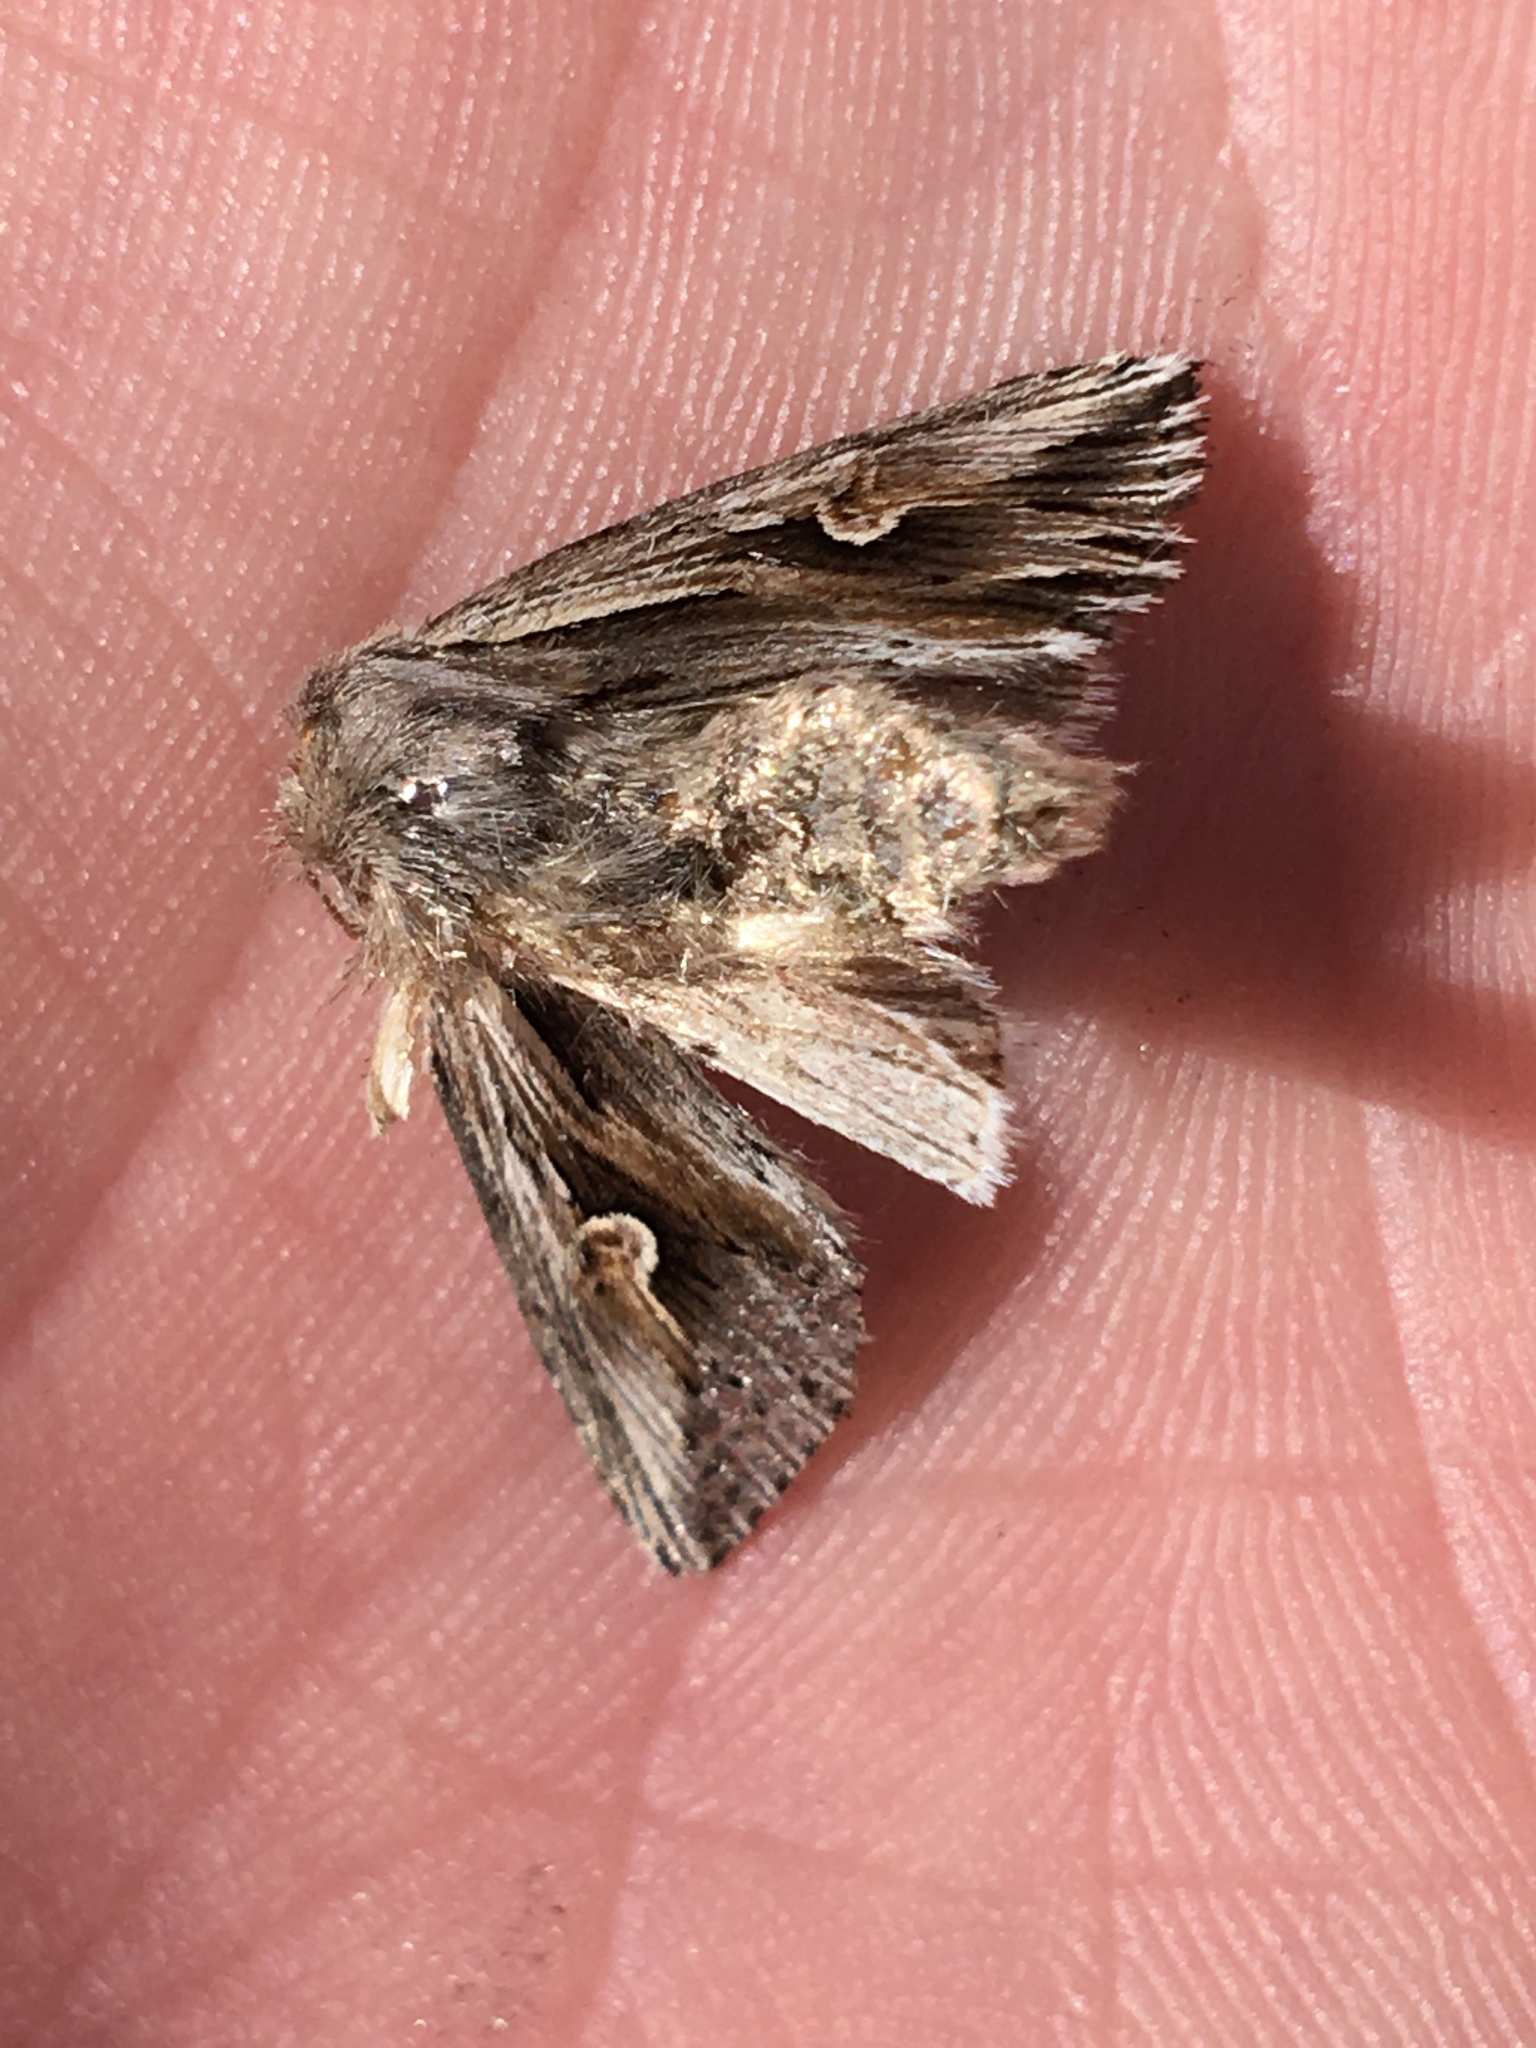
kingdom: Animalia
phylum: Arthropoda
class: Insecta
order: Lepidoptera
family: Noctuidae
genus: Nedra
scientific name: Nedra ramosula
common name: Gray half-spot
